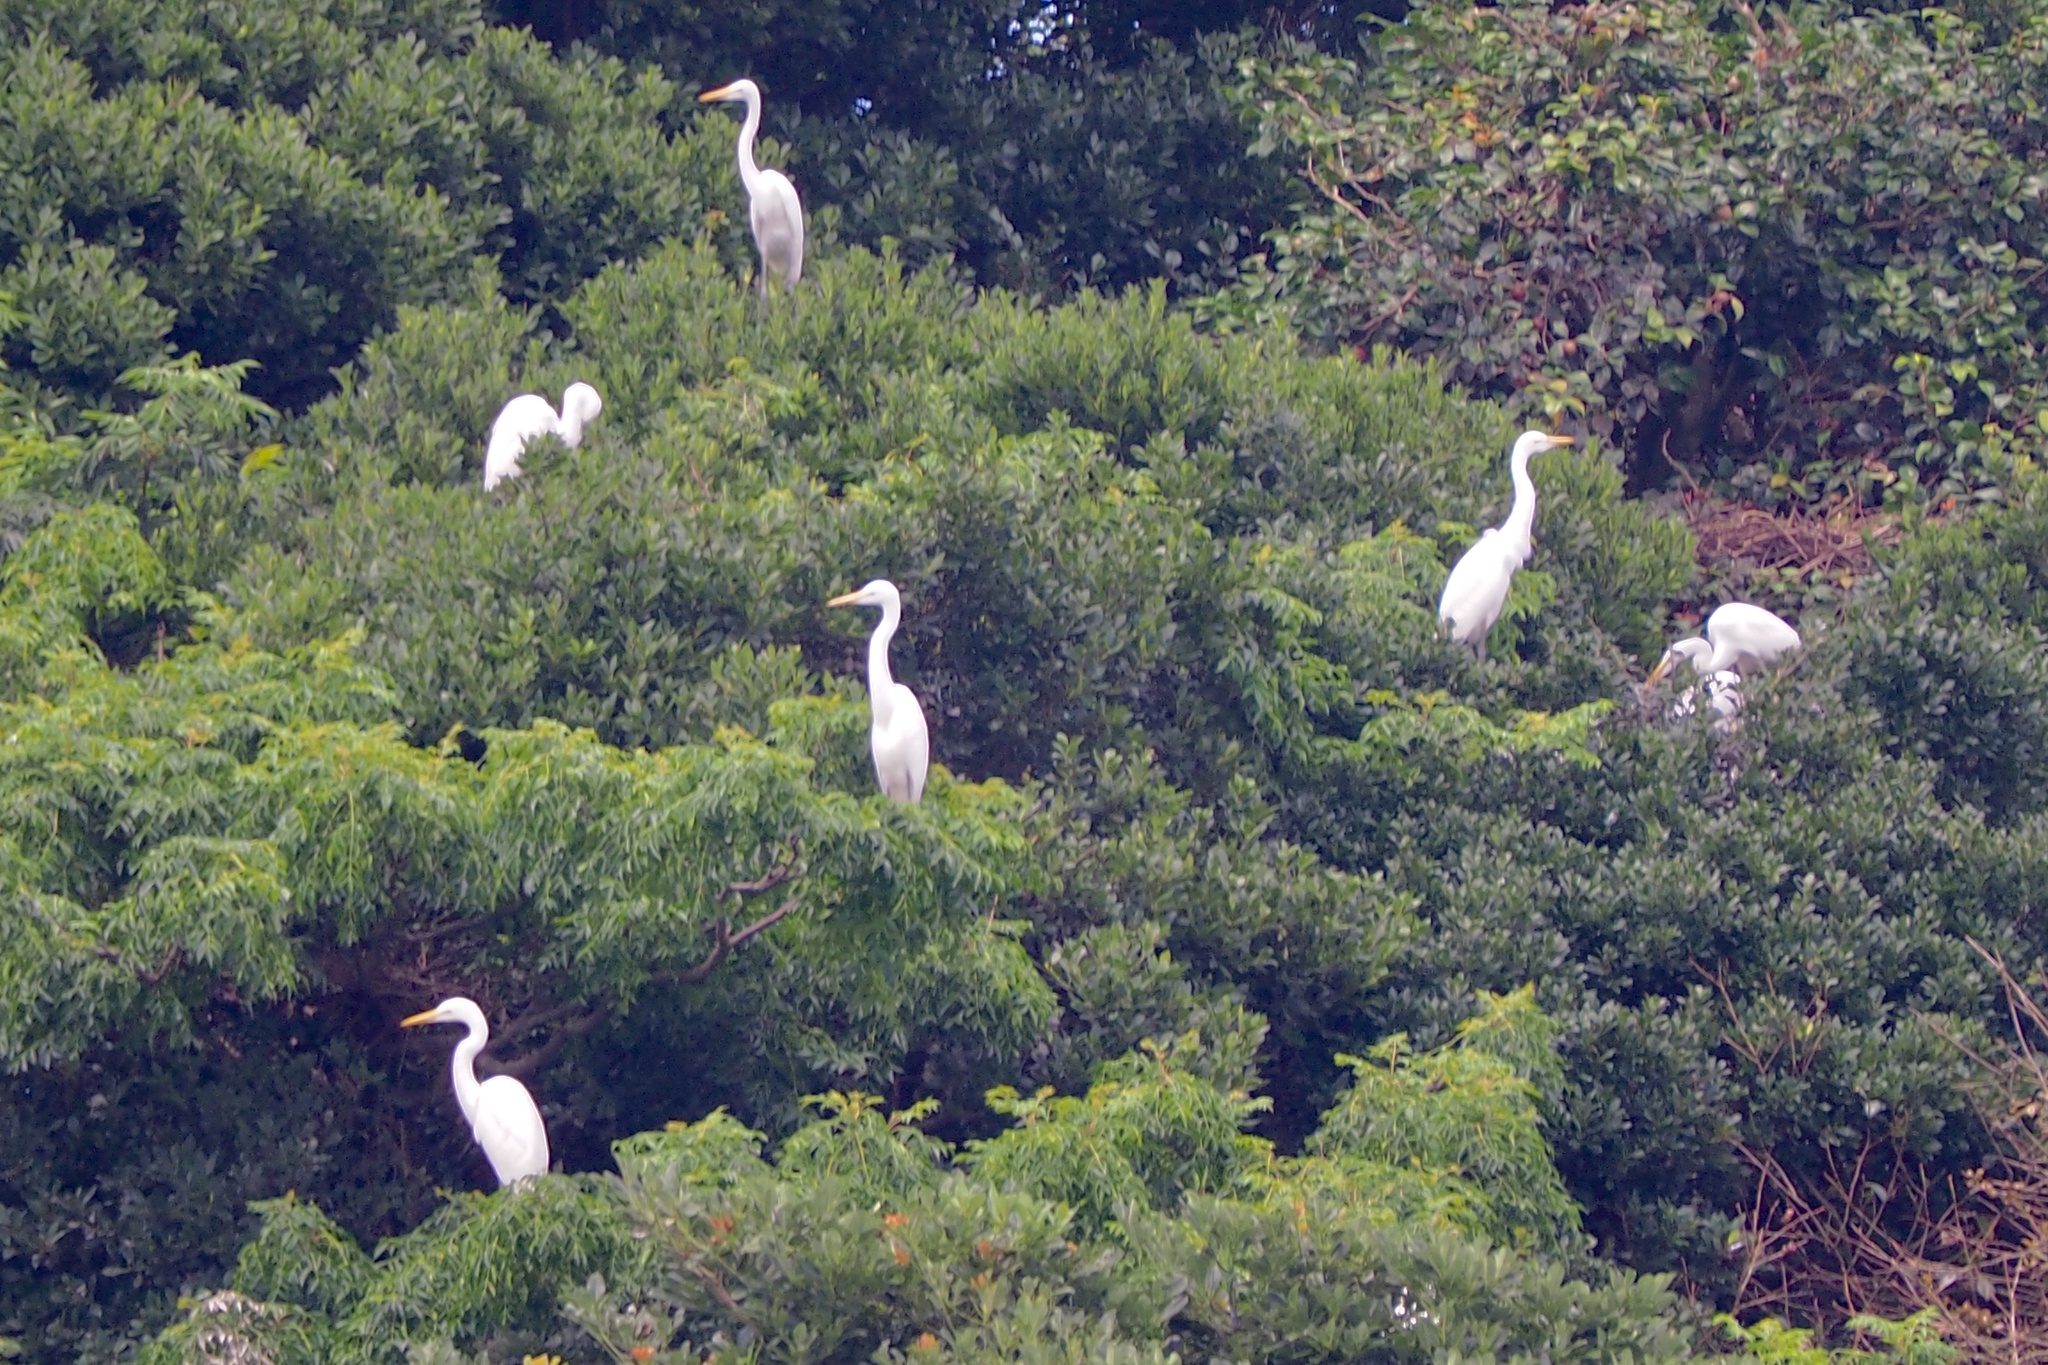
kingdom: Animalia
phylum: Chordata
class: Aves
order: Pelecaniformes
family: Ardeidae
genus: Ardea
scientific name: Ardea alba
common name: Great egret
